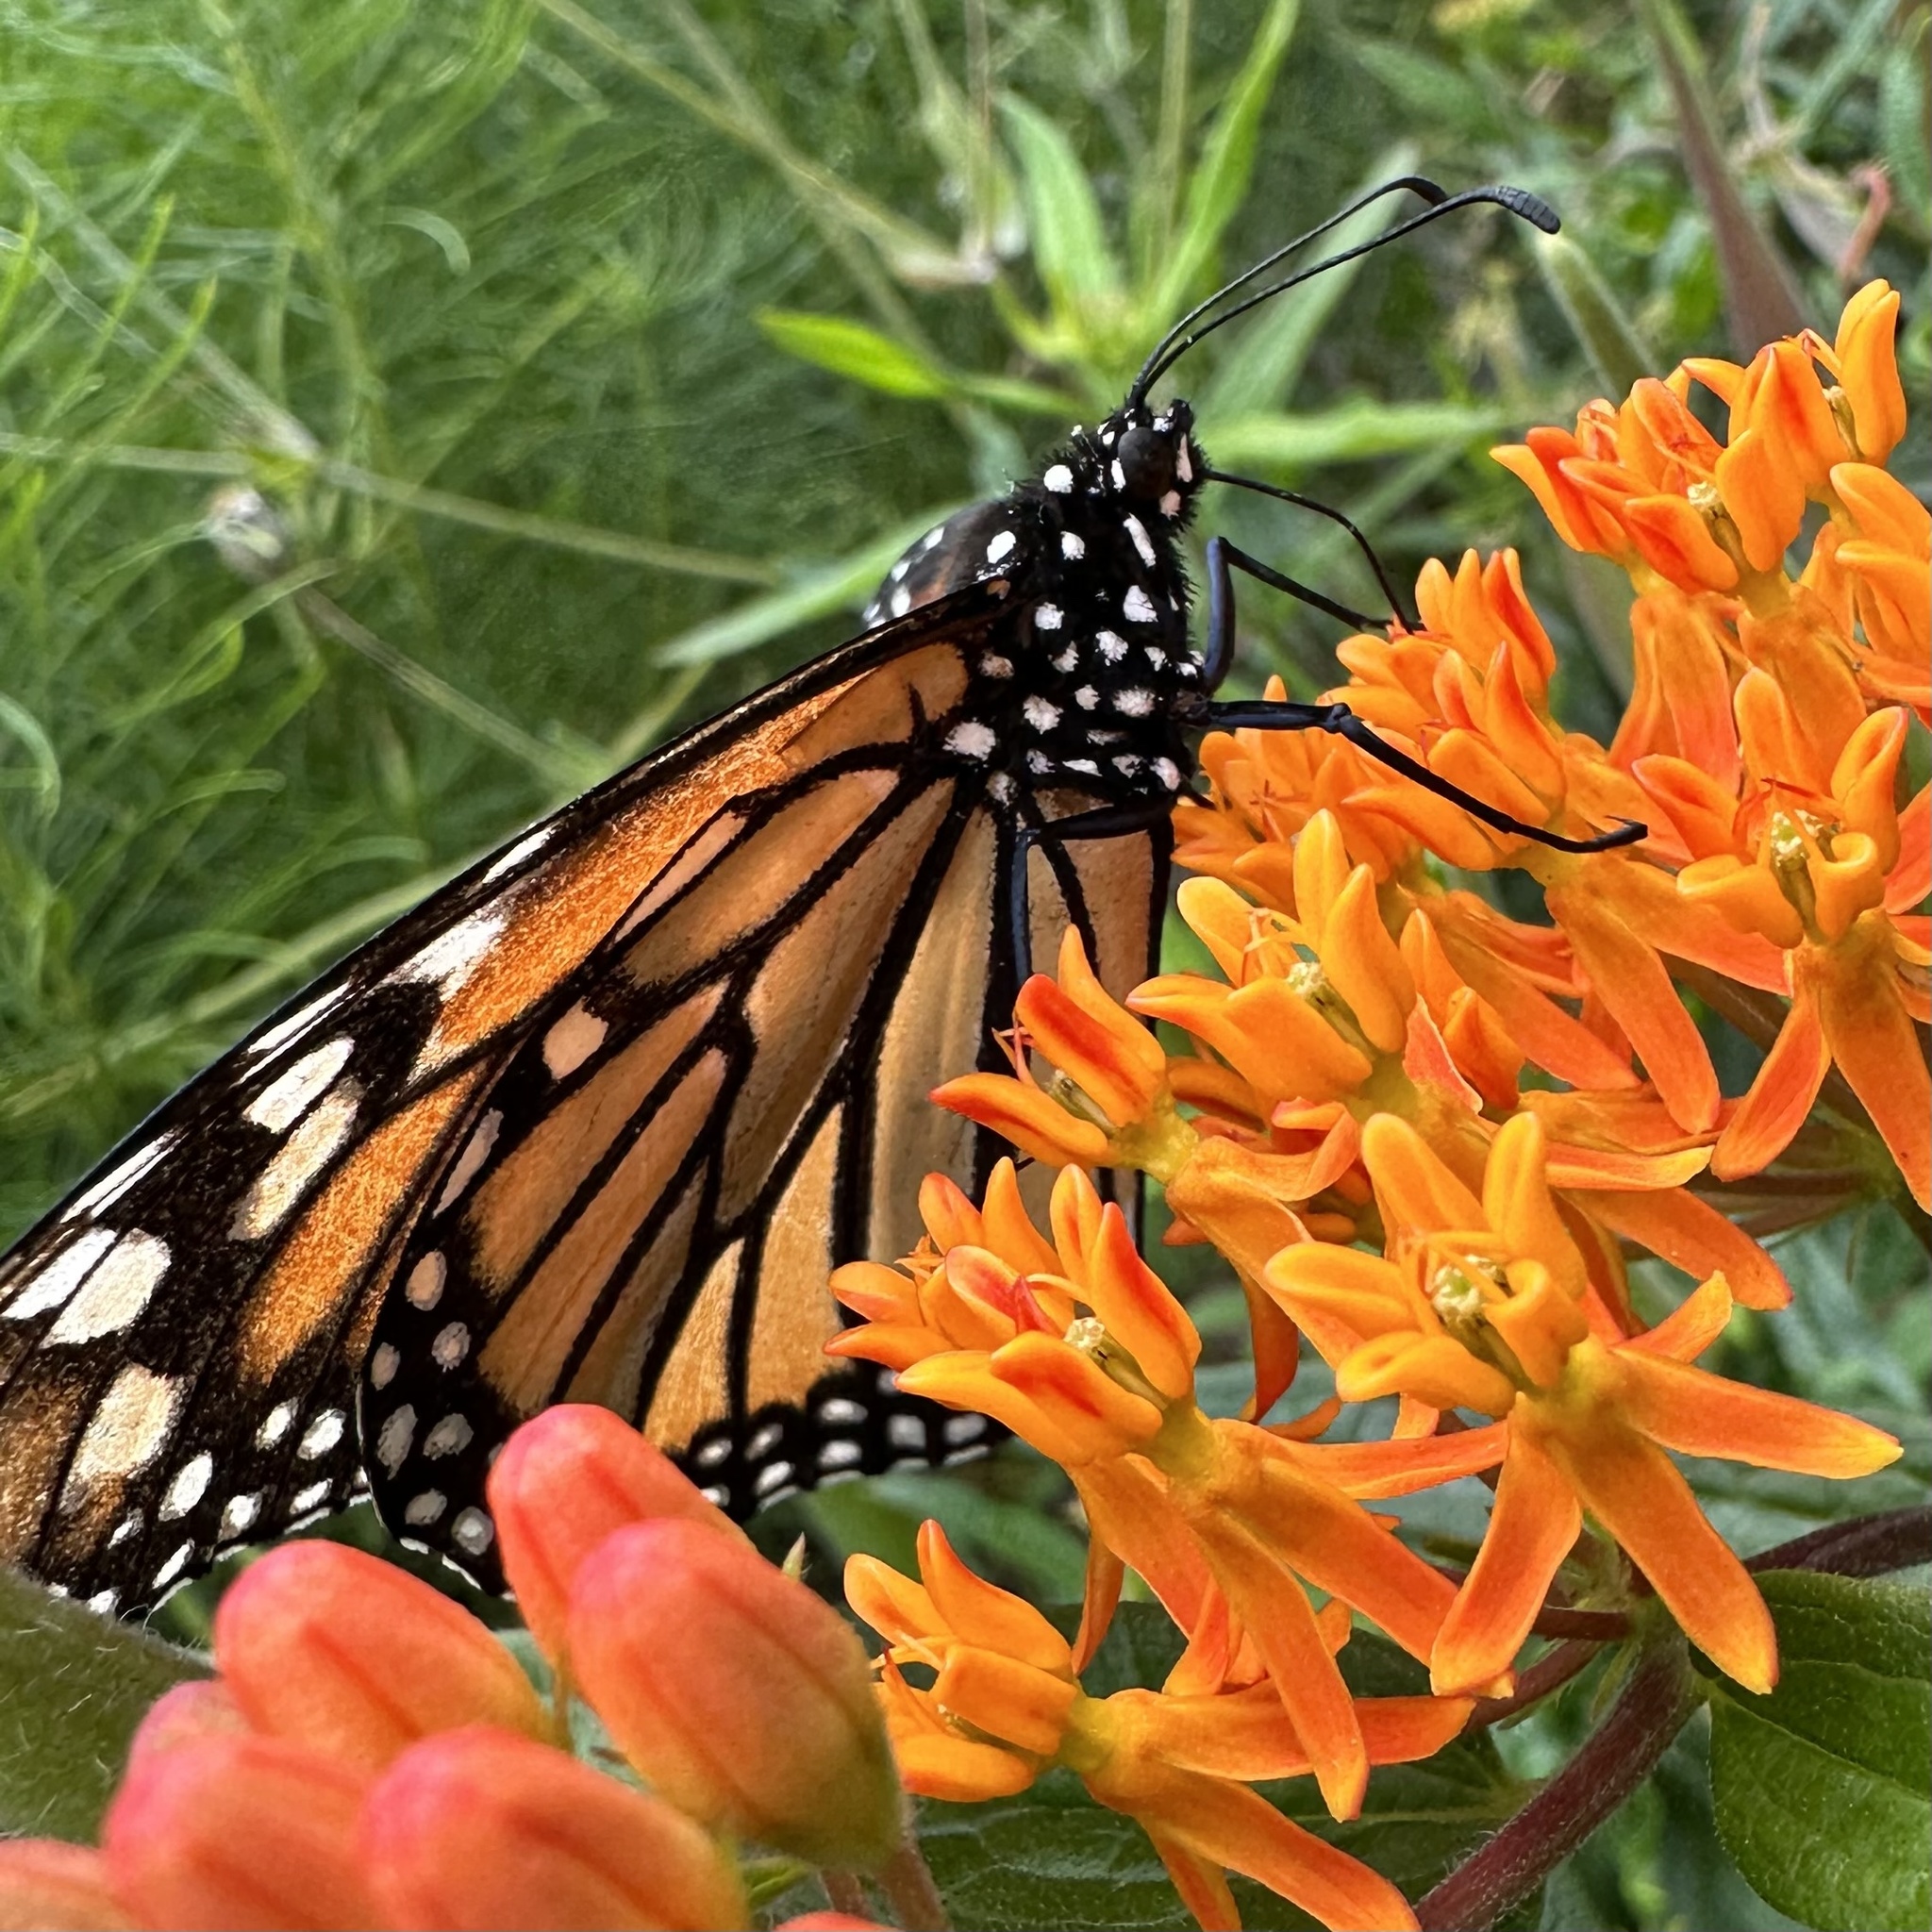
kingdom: Animalia
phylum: Arthropoda
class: Insecta
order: Lepidoptera
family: Nymphalidae
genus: Danaus
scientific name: Danaus plexippus
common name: Monarch
